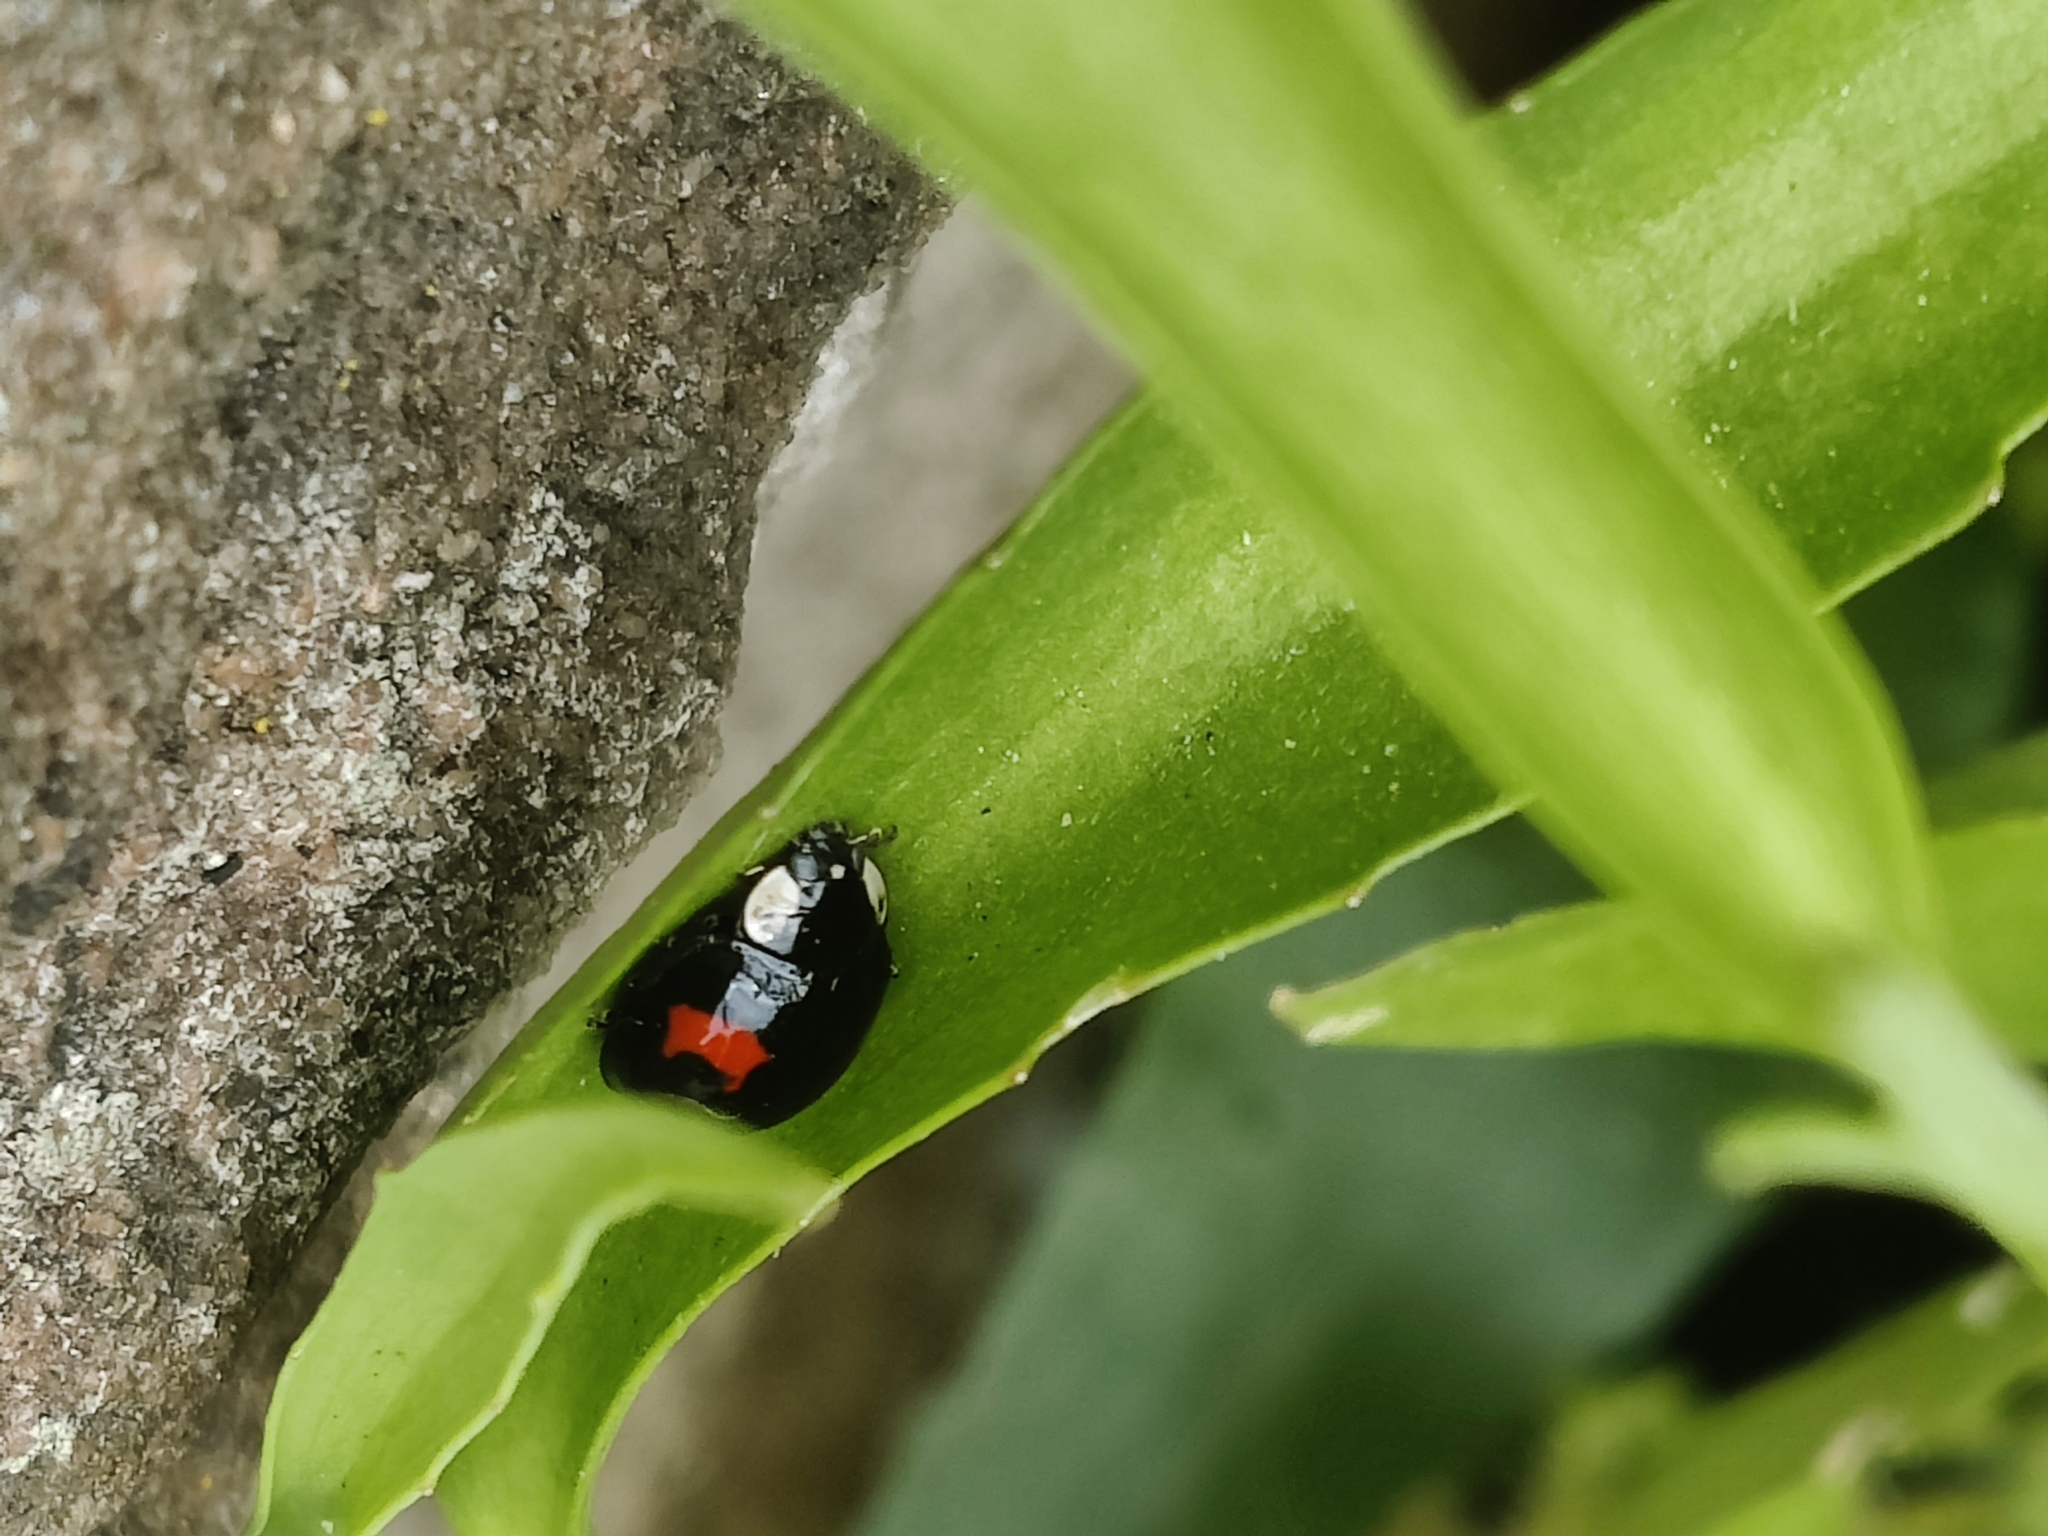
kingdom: Animalia
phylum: Arthropoda
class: Insecta
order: Coleoptera
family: Coccinellidae
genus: Harmonia
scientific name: Harmonia axyridis
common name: Harlequin ladybird
